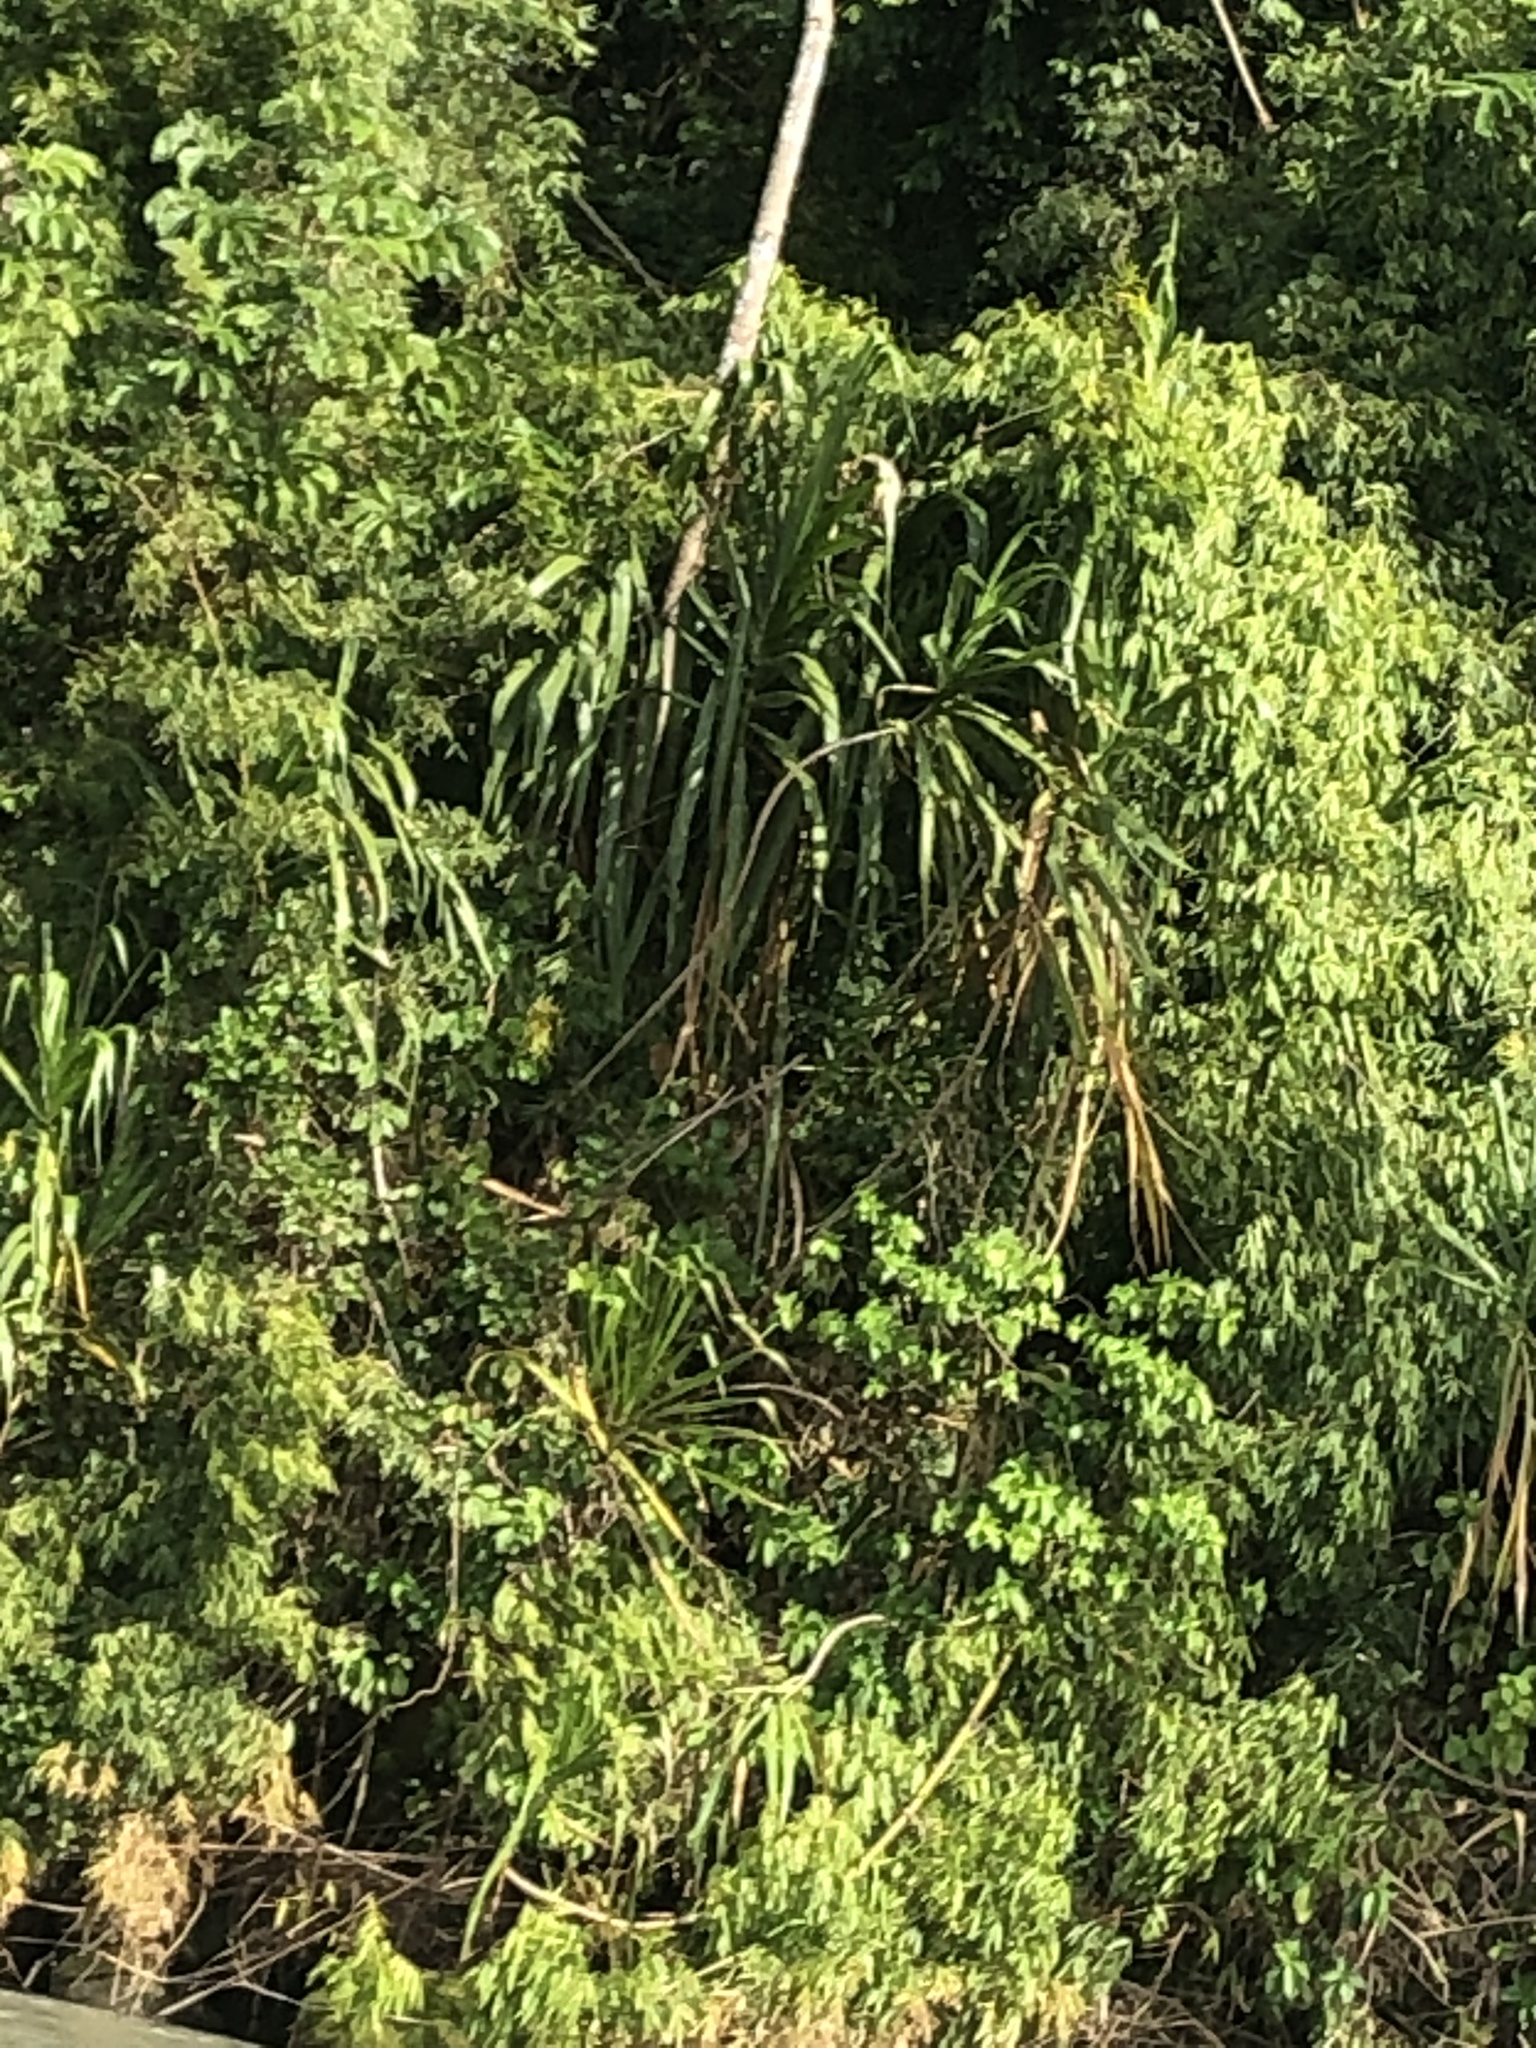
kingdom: Plantae
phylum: Tracheophyta
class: Liliopsida
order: Poales
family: Poaceae
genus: Gynerium
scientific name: Gynerium sagittatum
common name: Wild cane
